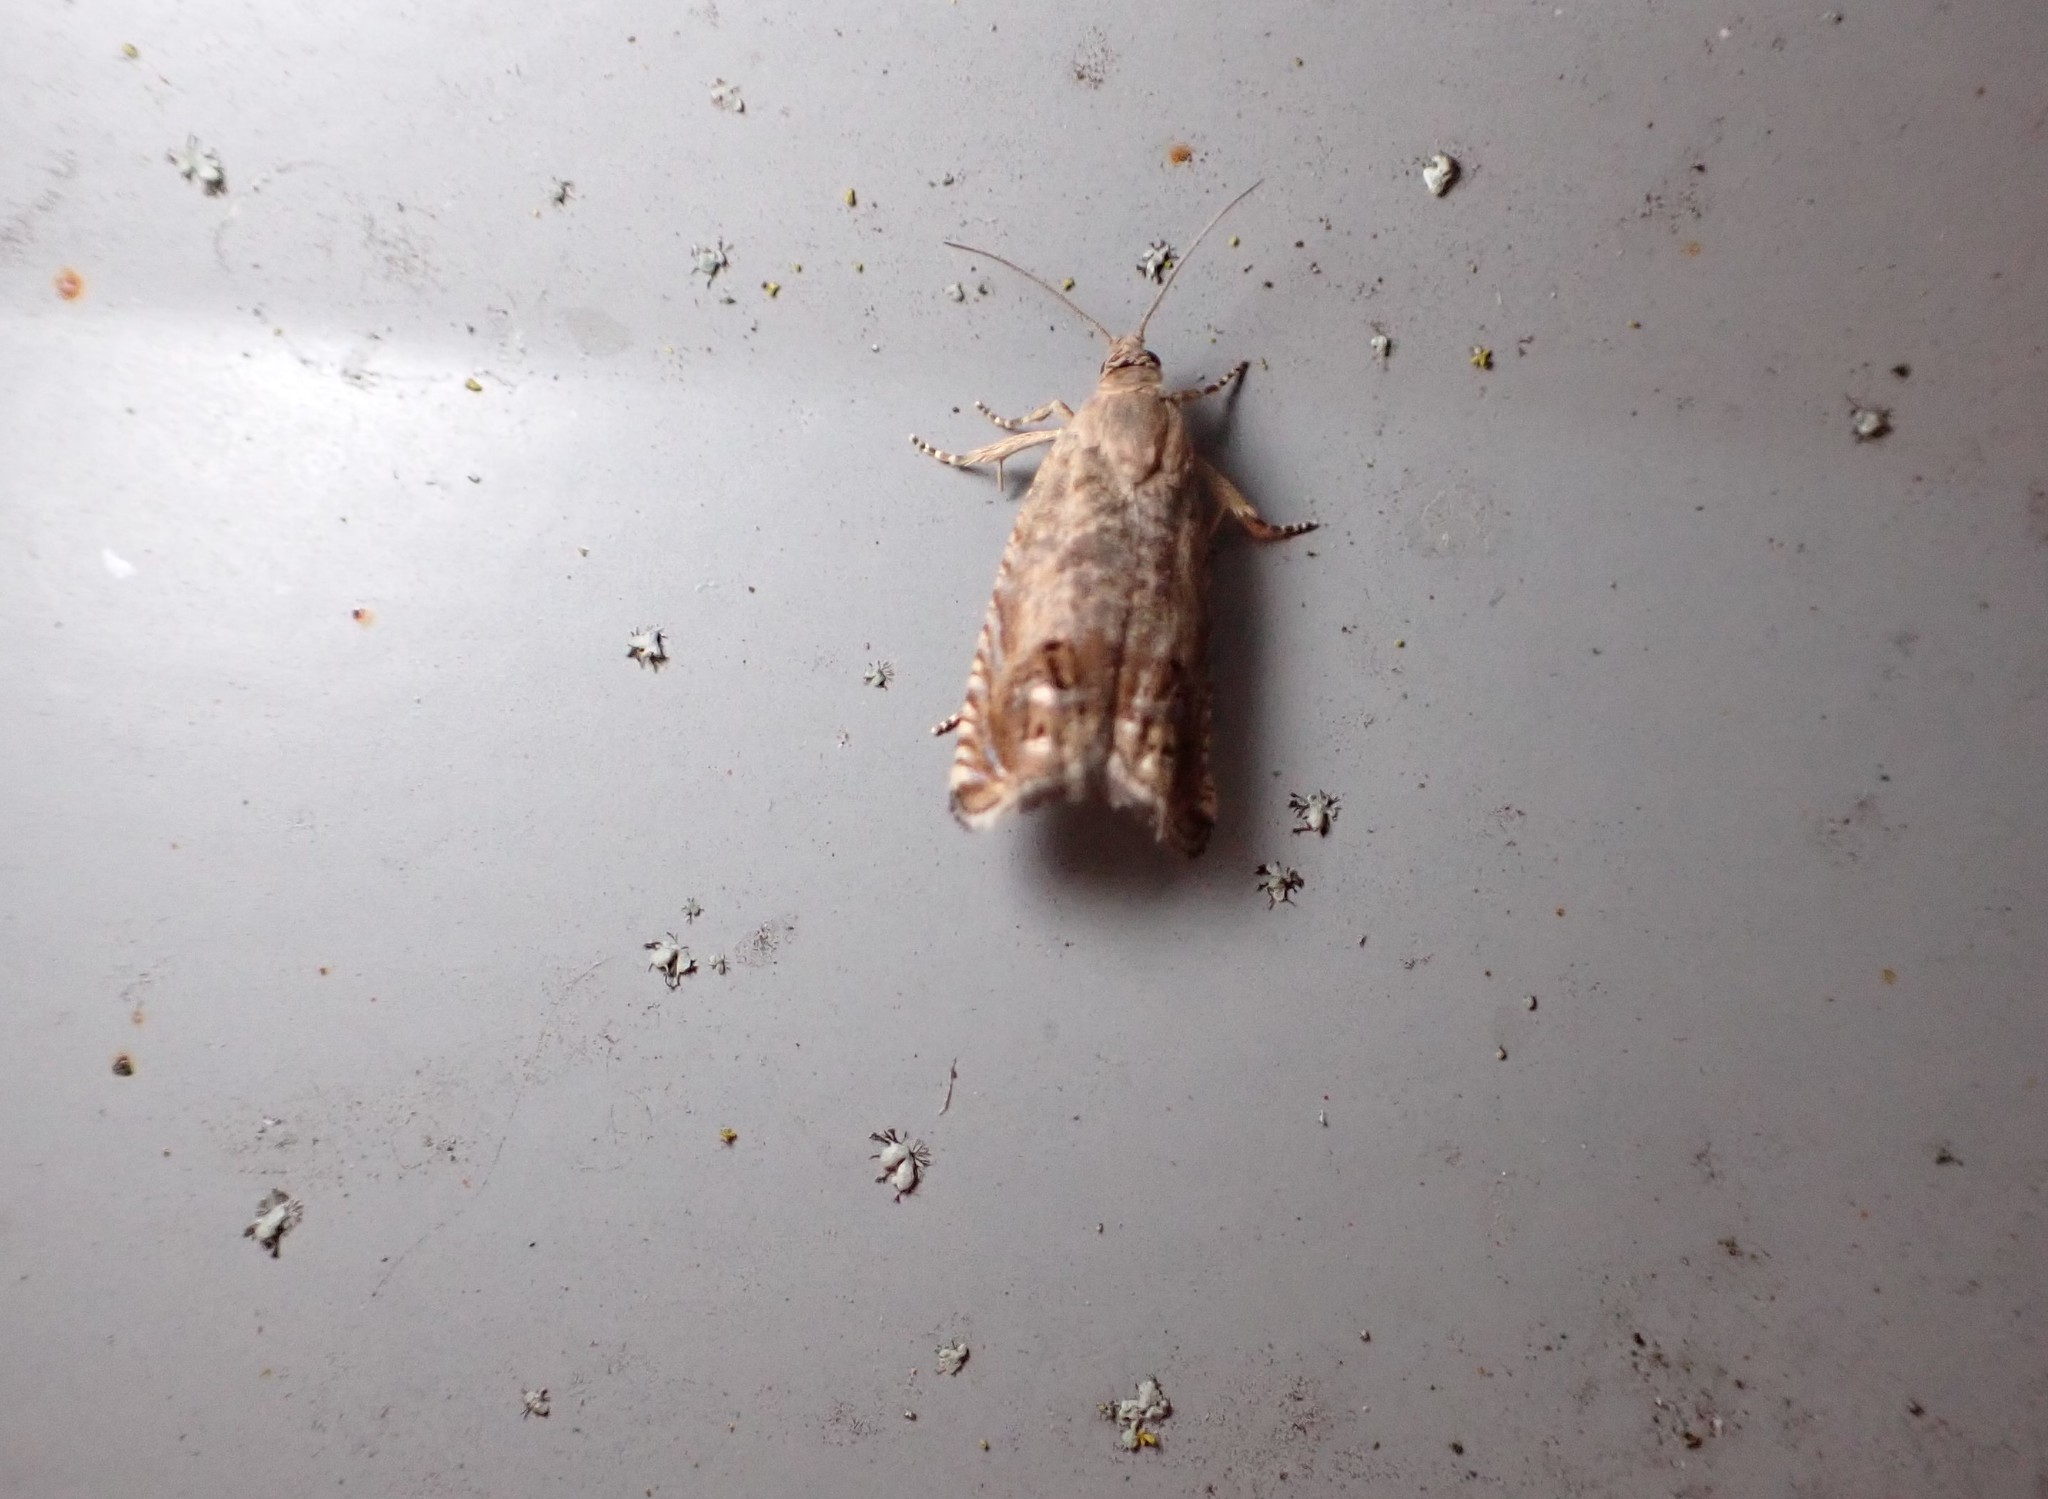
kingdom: Animalia
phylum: Arthropoda
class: Insecta
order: Lepidoptera
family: Tortricidae
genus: Cydia
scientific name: Cydia succedana
